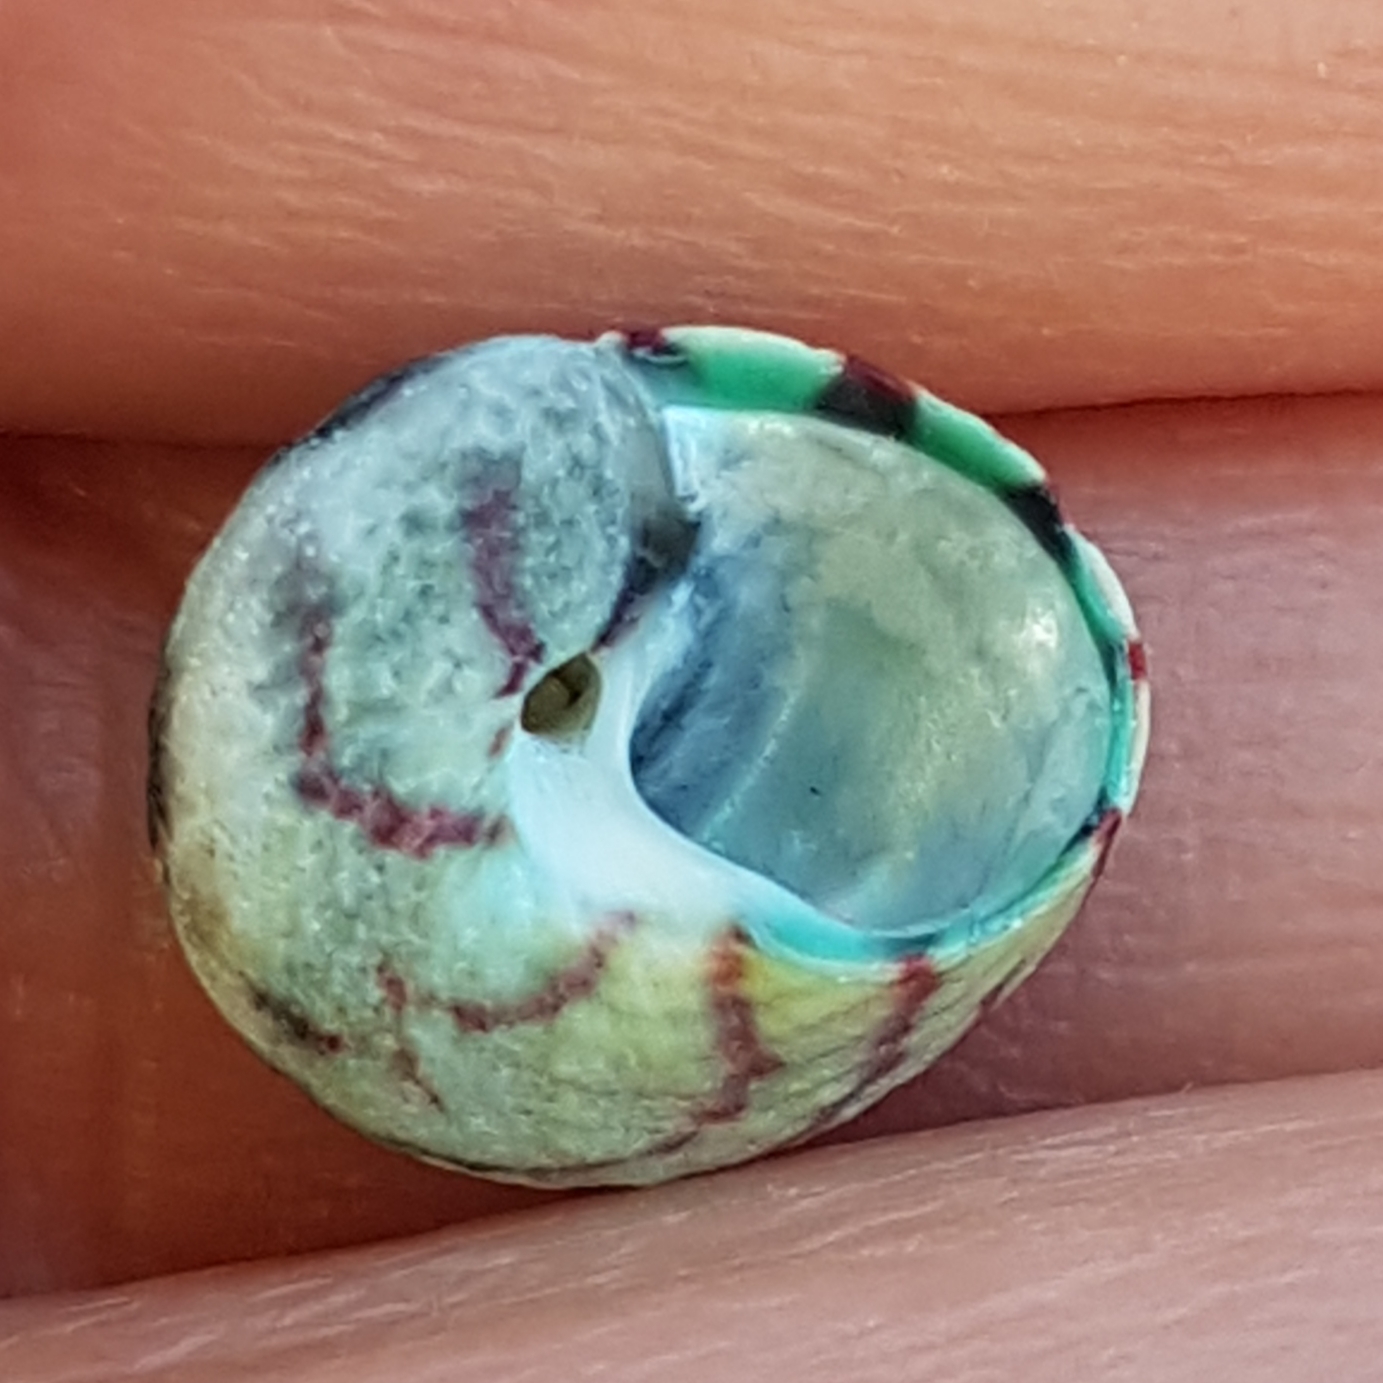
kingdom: Animalia
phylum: Mollusca
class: Gastropoda
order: Trochida
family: Trochidae
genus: Steromphala
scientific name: Steromphala umbilicalis
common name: Flat top shell
